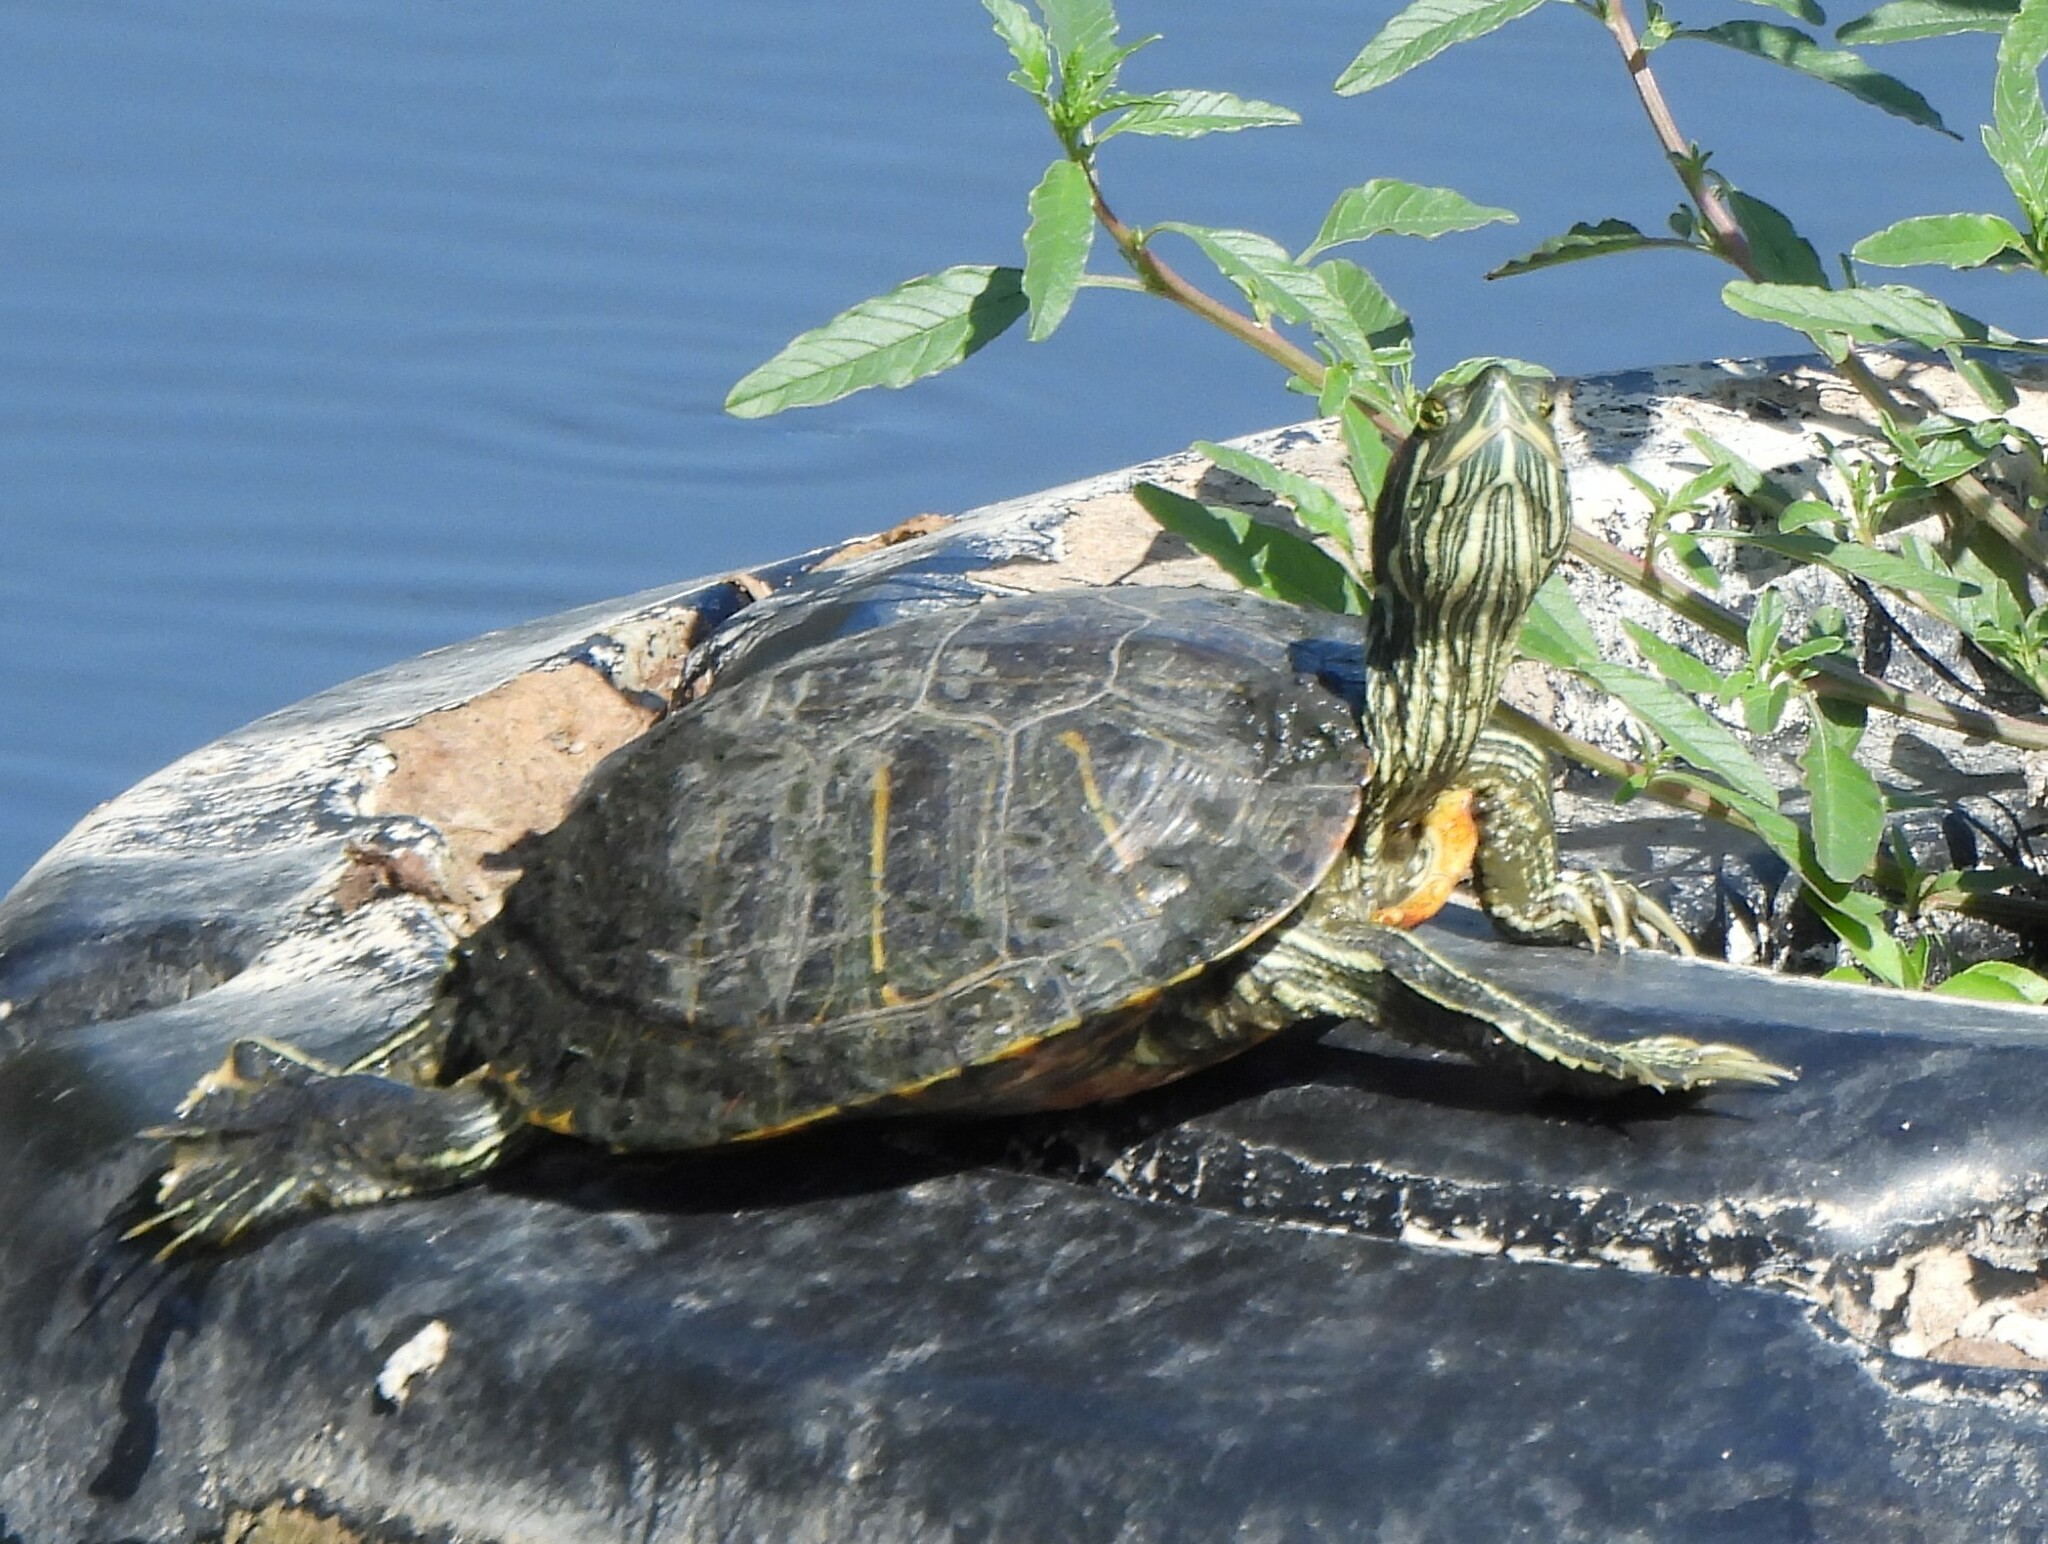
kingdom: Animalia
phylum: Chordata
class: Testudines
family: Emydidae
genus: Trachemys
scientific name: Trachemys scripta
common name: Slider
